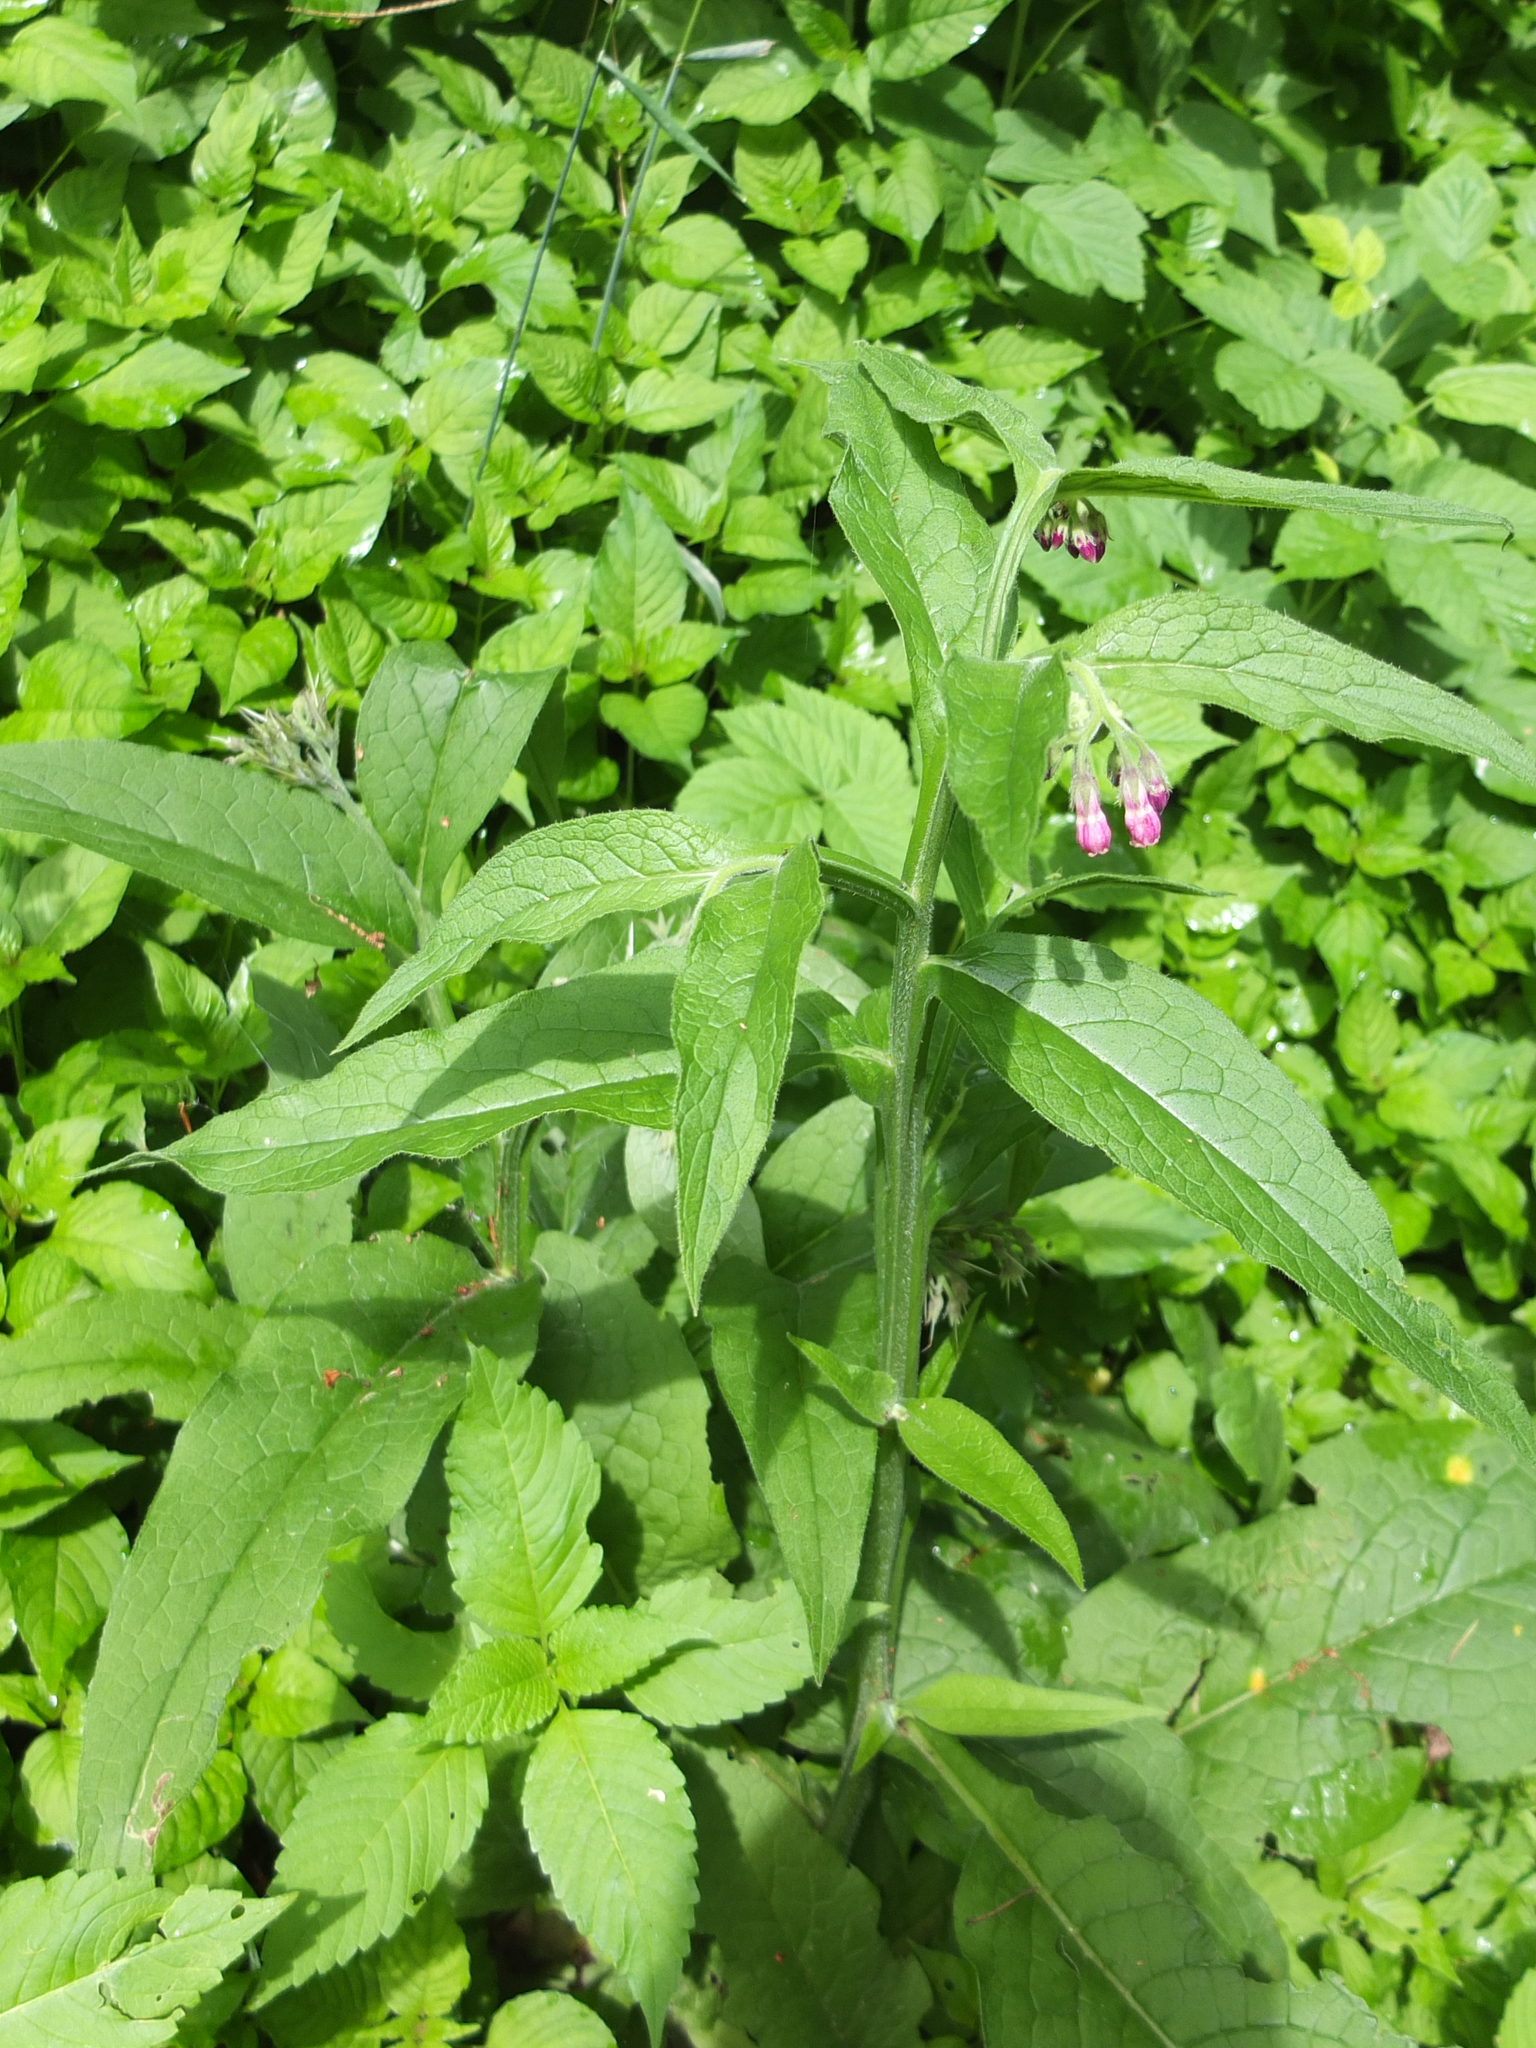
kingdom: Plantae
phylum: Tracheophyta
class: Magnoliopsida
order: Boraginales
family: Boraginaceae
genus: Symphytum
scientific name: Symphytum officinale
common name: Common comfrey
